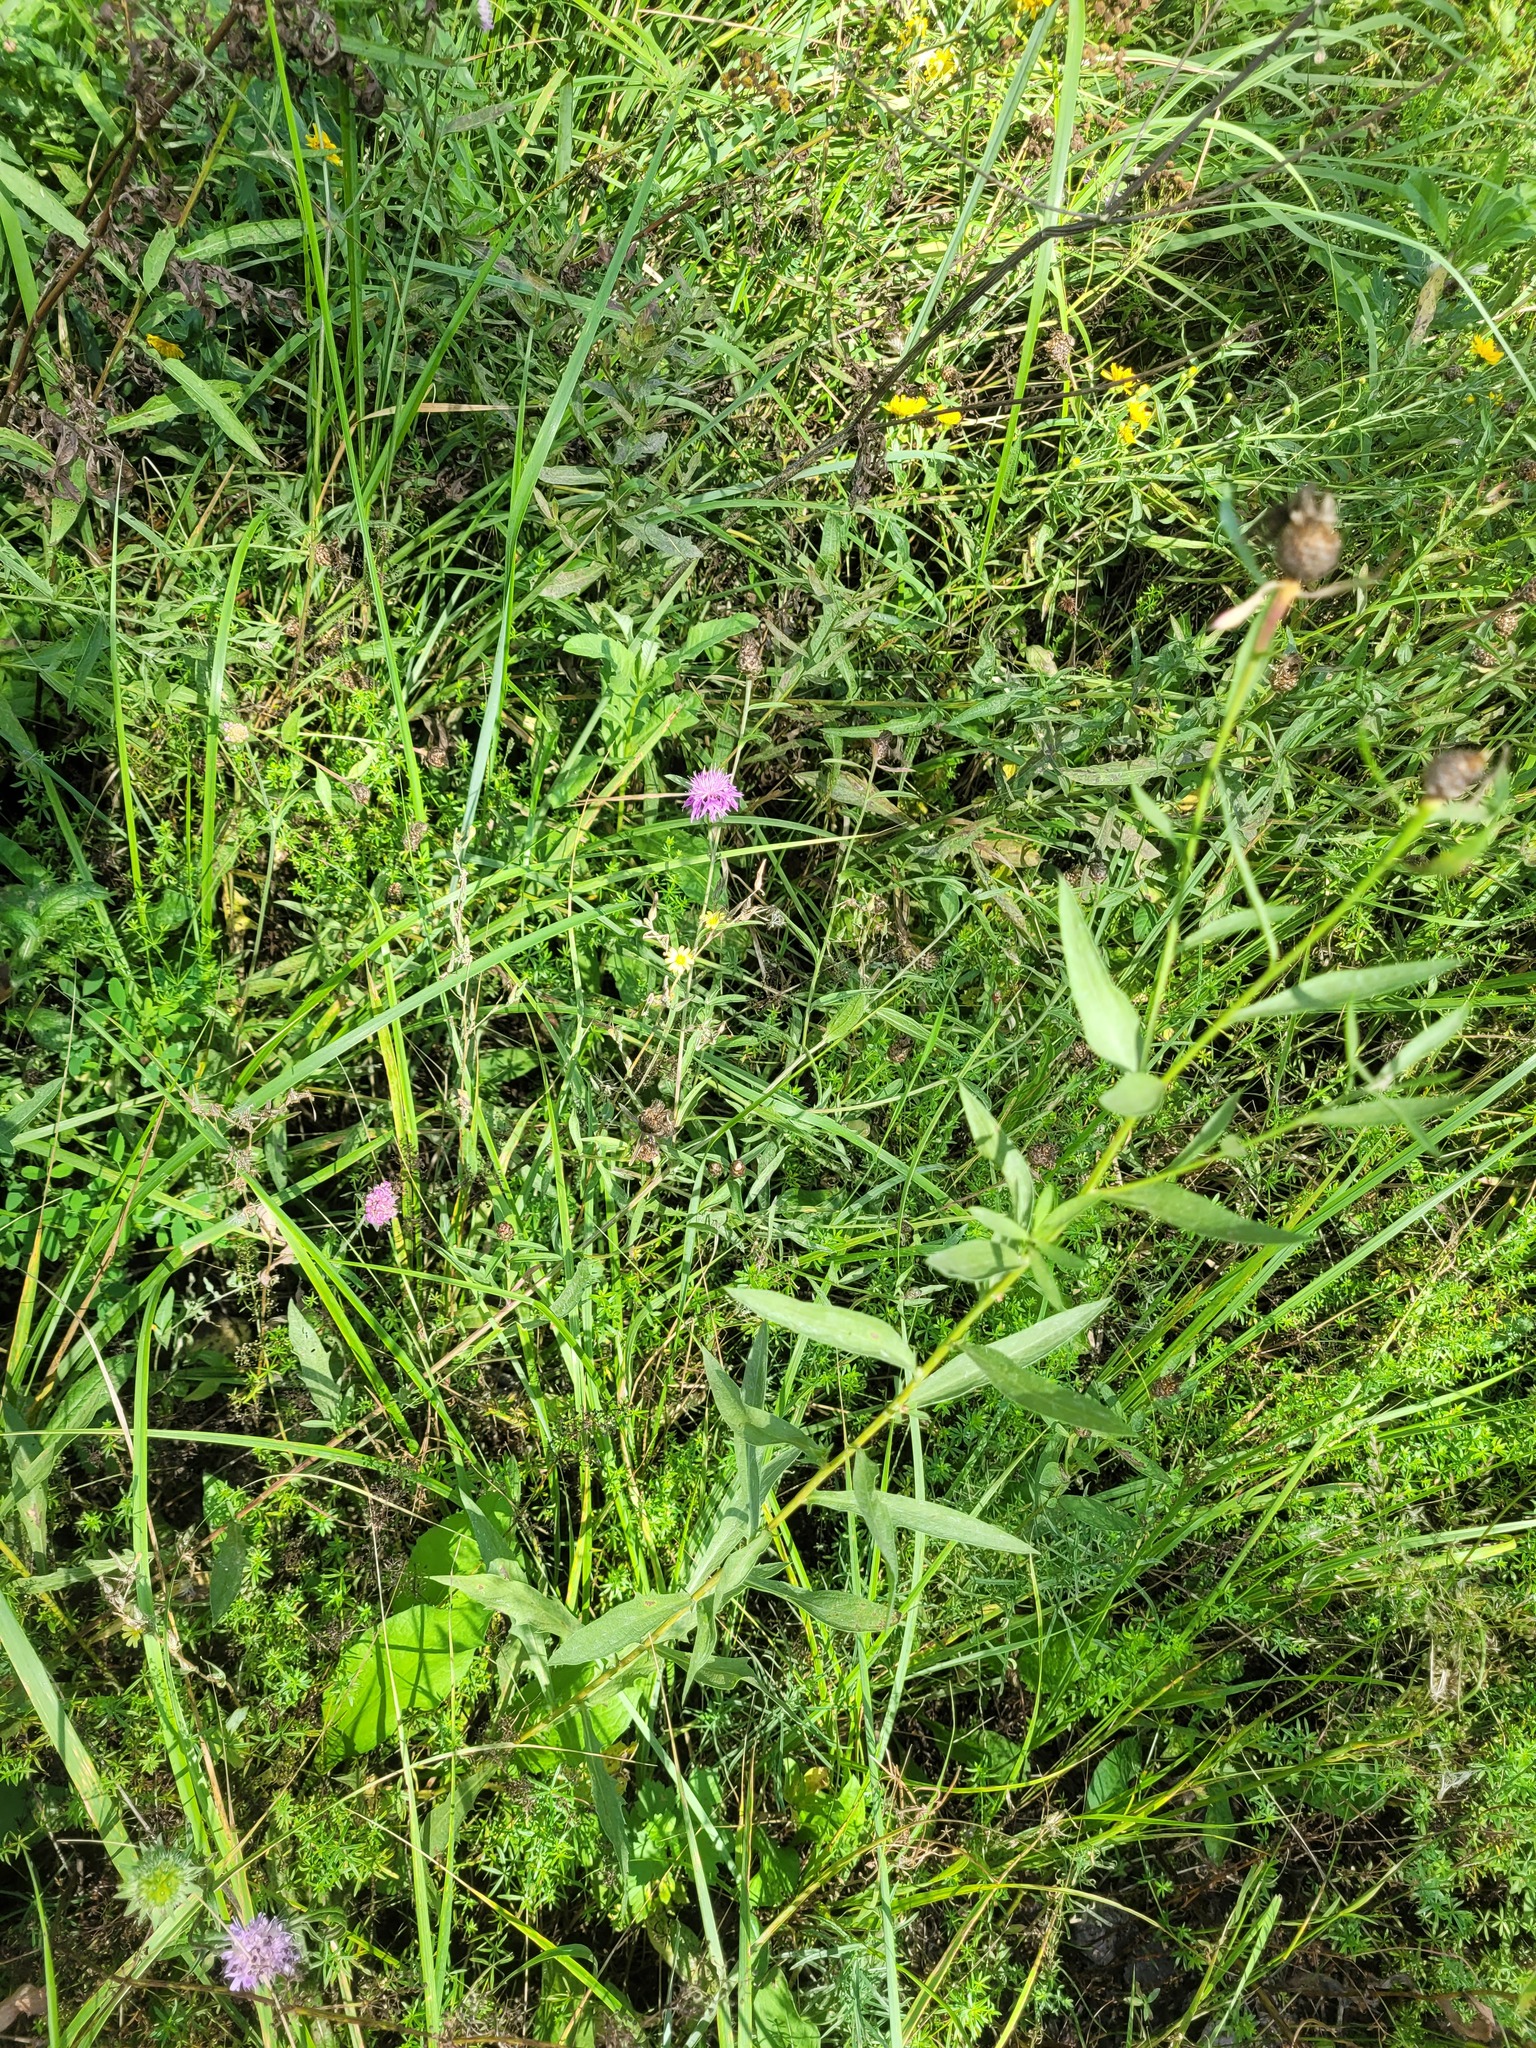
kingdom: Plantae
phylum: Tracheophyta
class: Magnoliopsida
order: Asterales
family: Asteraceae
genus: Centaurea
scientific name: Centaurea jacea
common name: Brown knapweed
